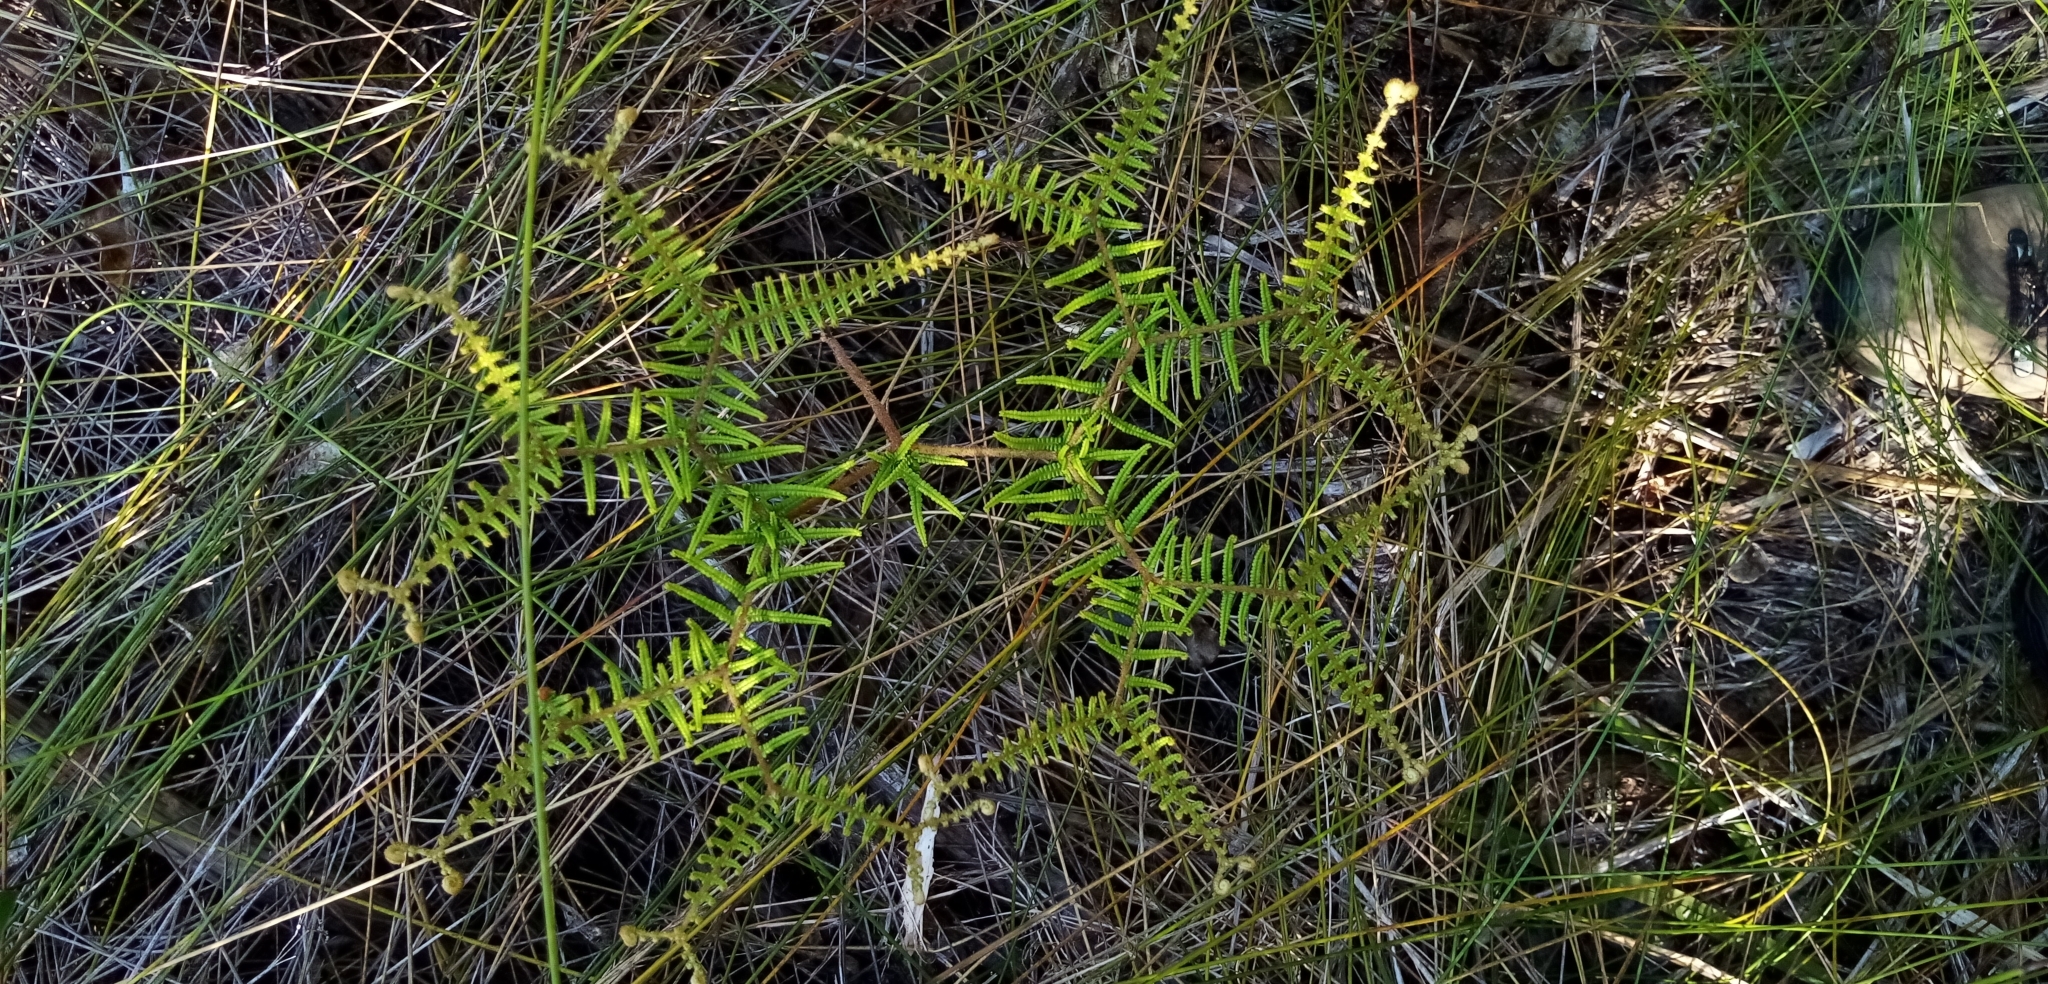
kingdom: Plantae
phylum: Tracheophyta
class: Polypodiopsida
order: Gleicheniales
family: Gleicheniaceae
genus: Gleichenia
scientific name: Gleichenia dicarpa
